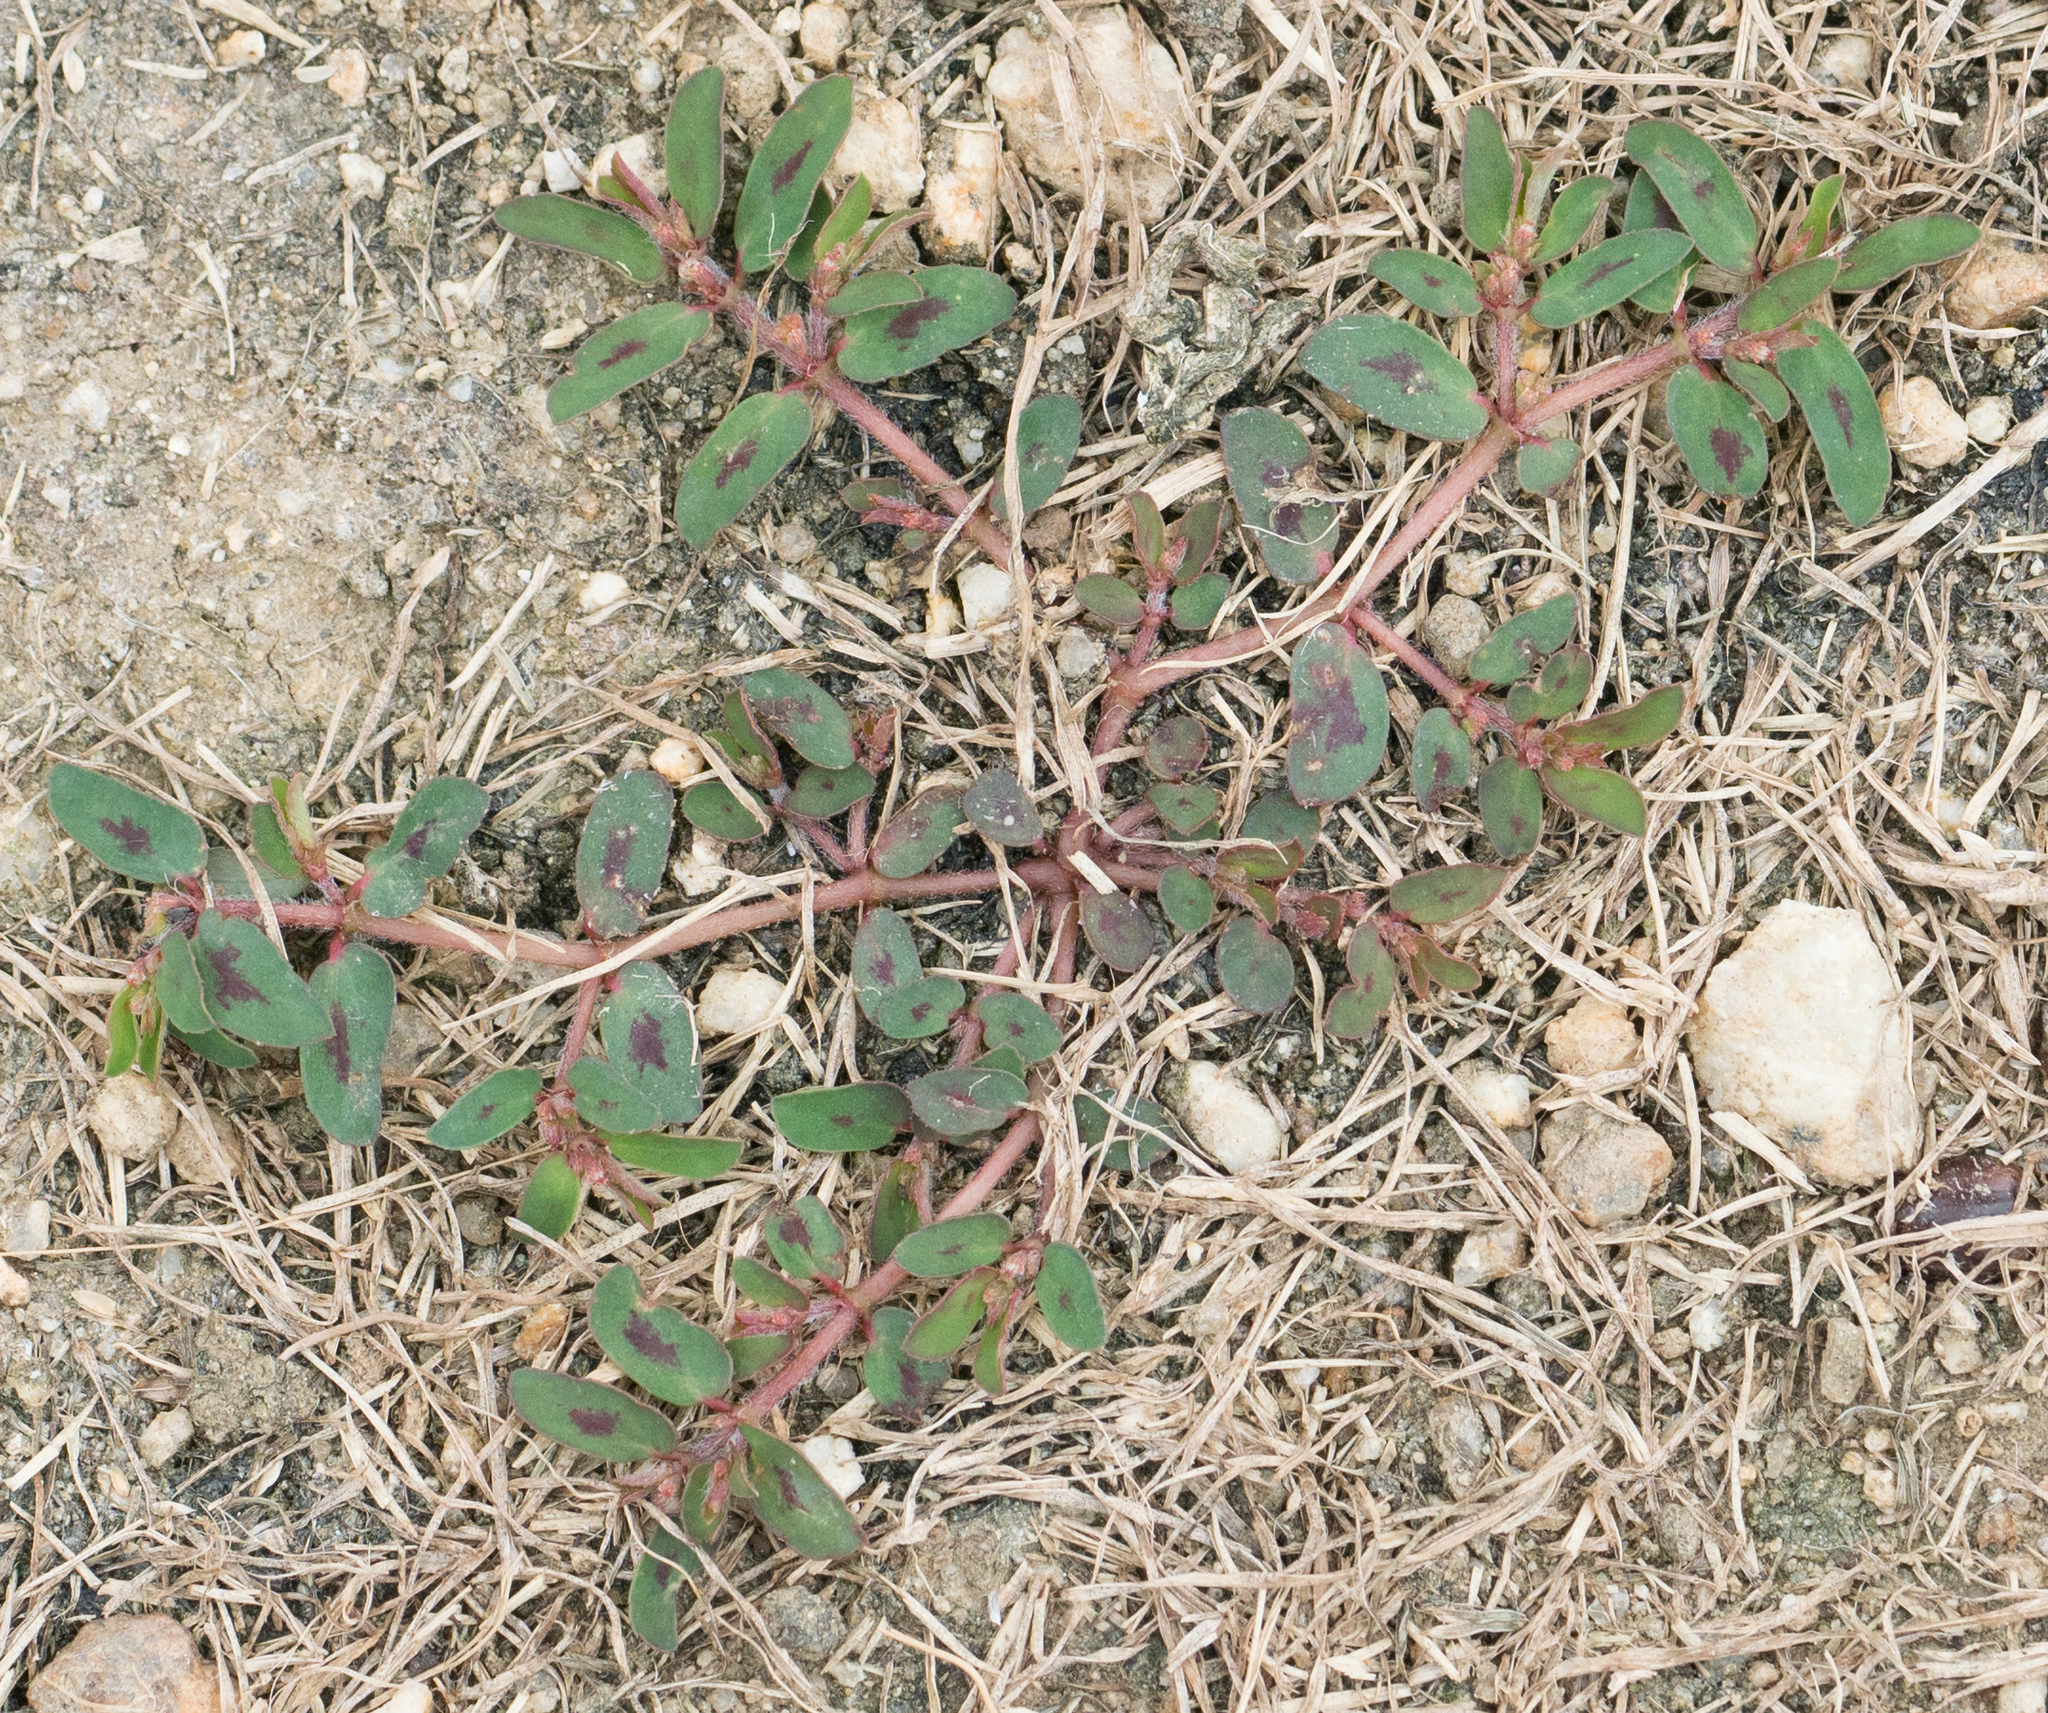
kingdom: Plantae
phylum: Tracheophyta
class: Magnoliopsida
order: Malpighiales
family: Euphorbiaceae
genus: Euphorbia
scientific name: Euphorbia maculata
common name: Spotted spurge
